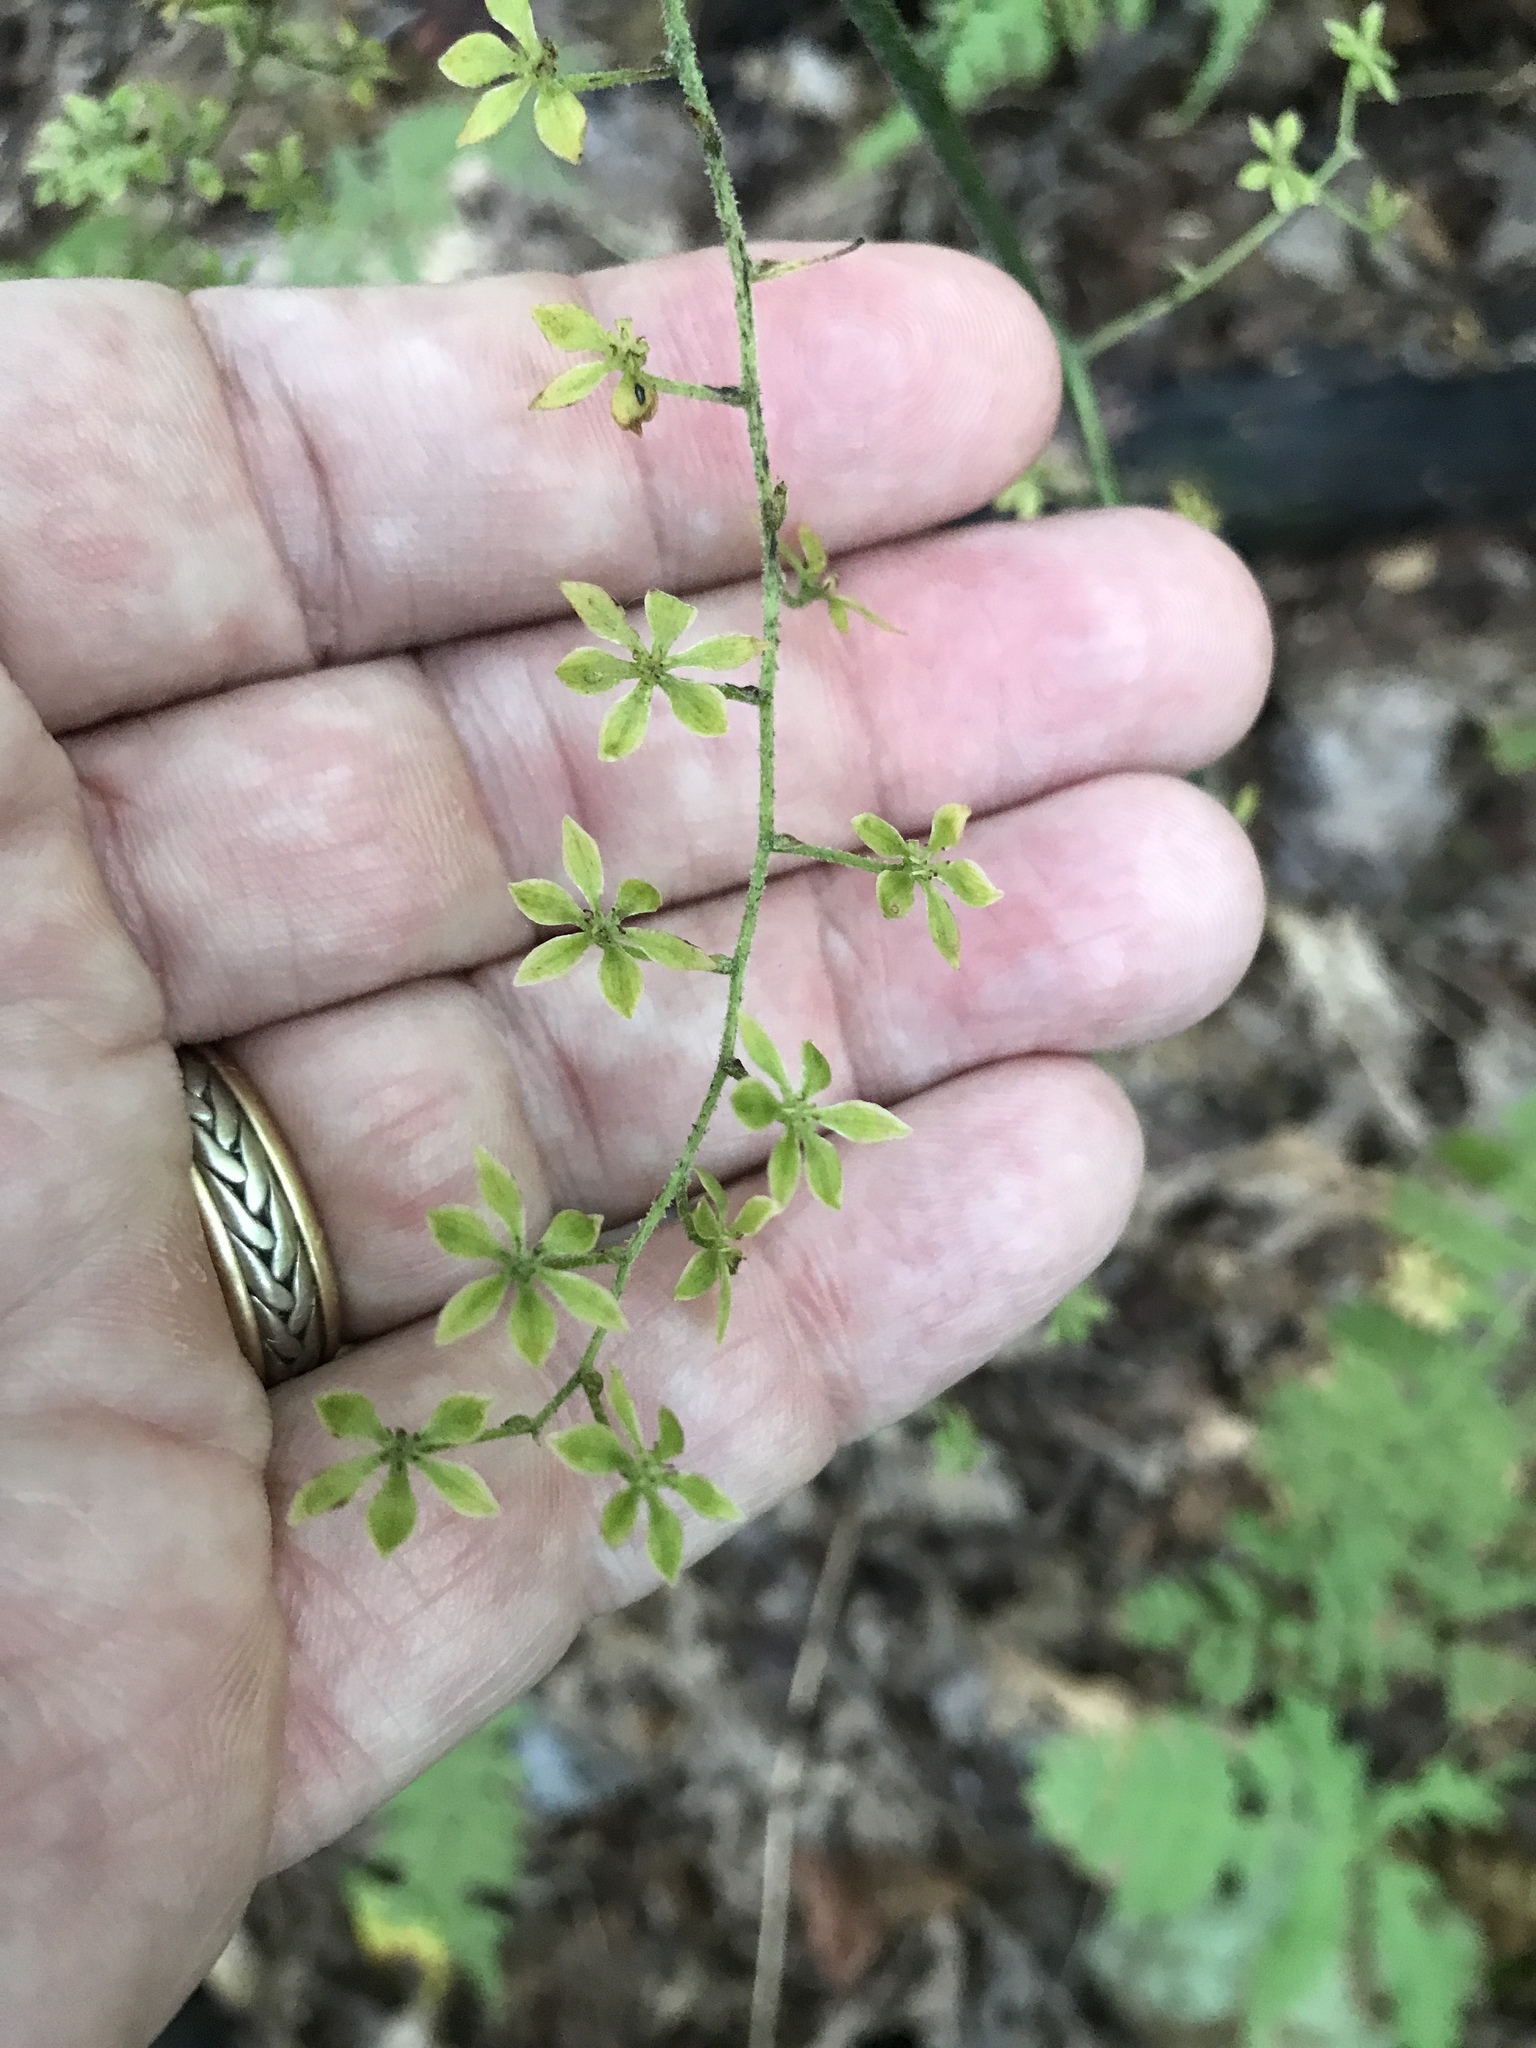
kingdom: Plantae
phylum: Tracheophyta
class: Liliopsida
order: Liliales
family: Melanthiaceae
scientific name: Melanthiaceae
